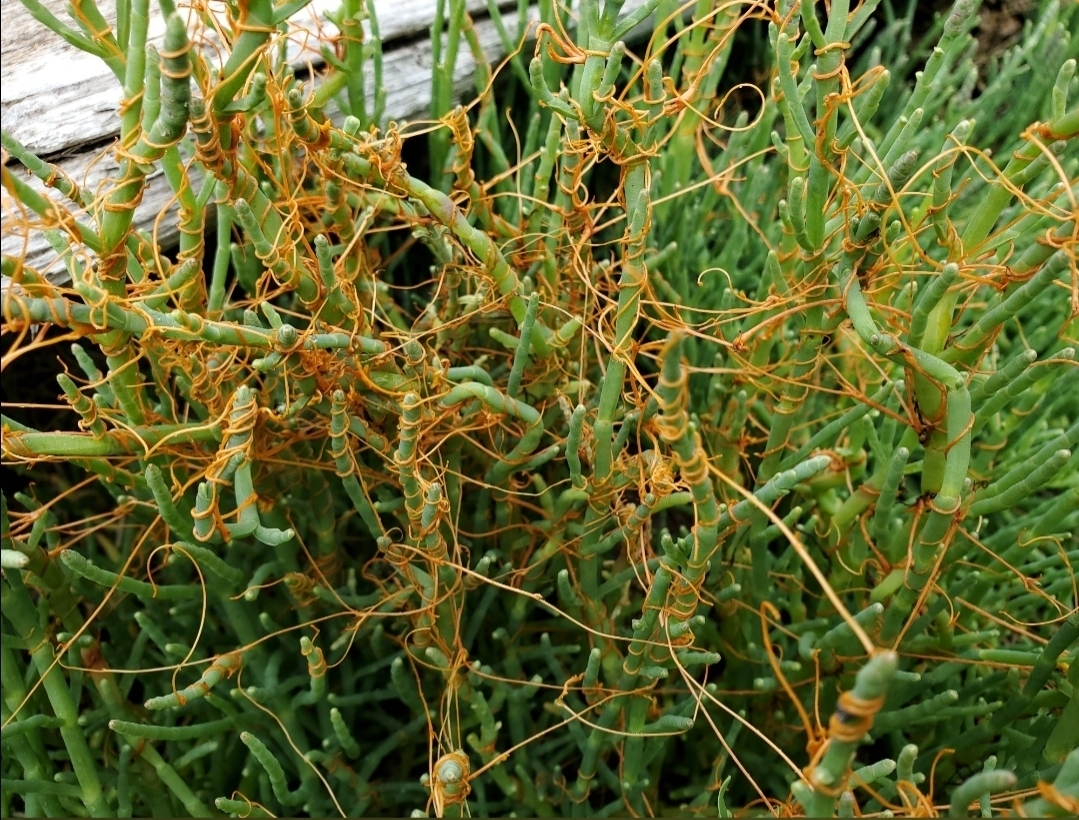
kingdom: Plantae
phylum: Tracheophyta
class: Magnoliopsida
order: Solanales
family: Convolvulaceae
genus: Cuscuta
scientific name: Cuscuta pacifica
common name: Large saltmarsh dodder
